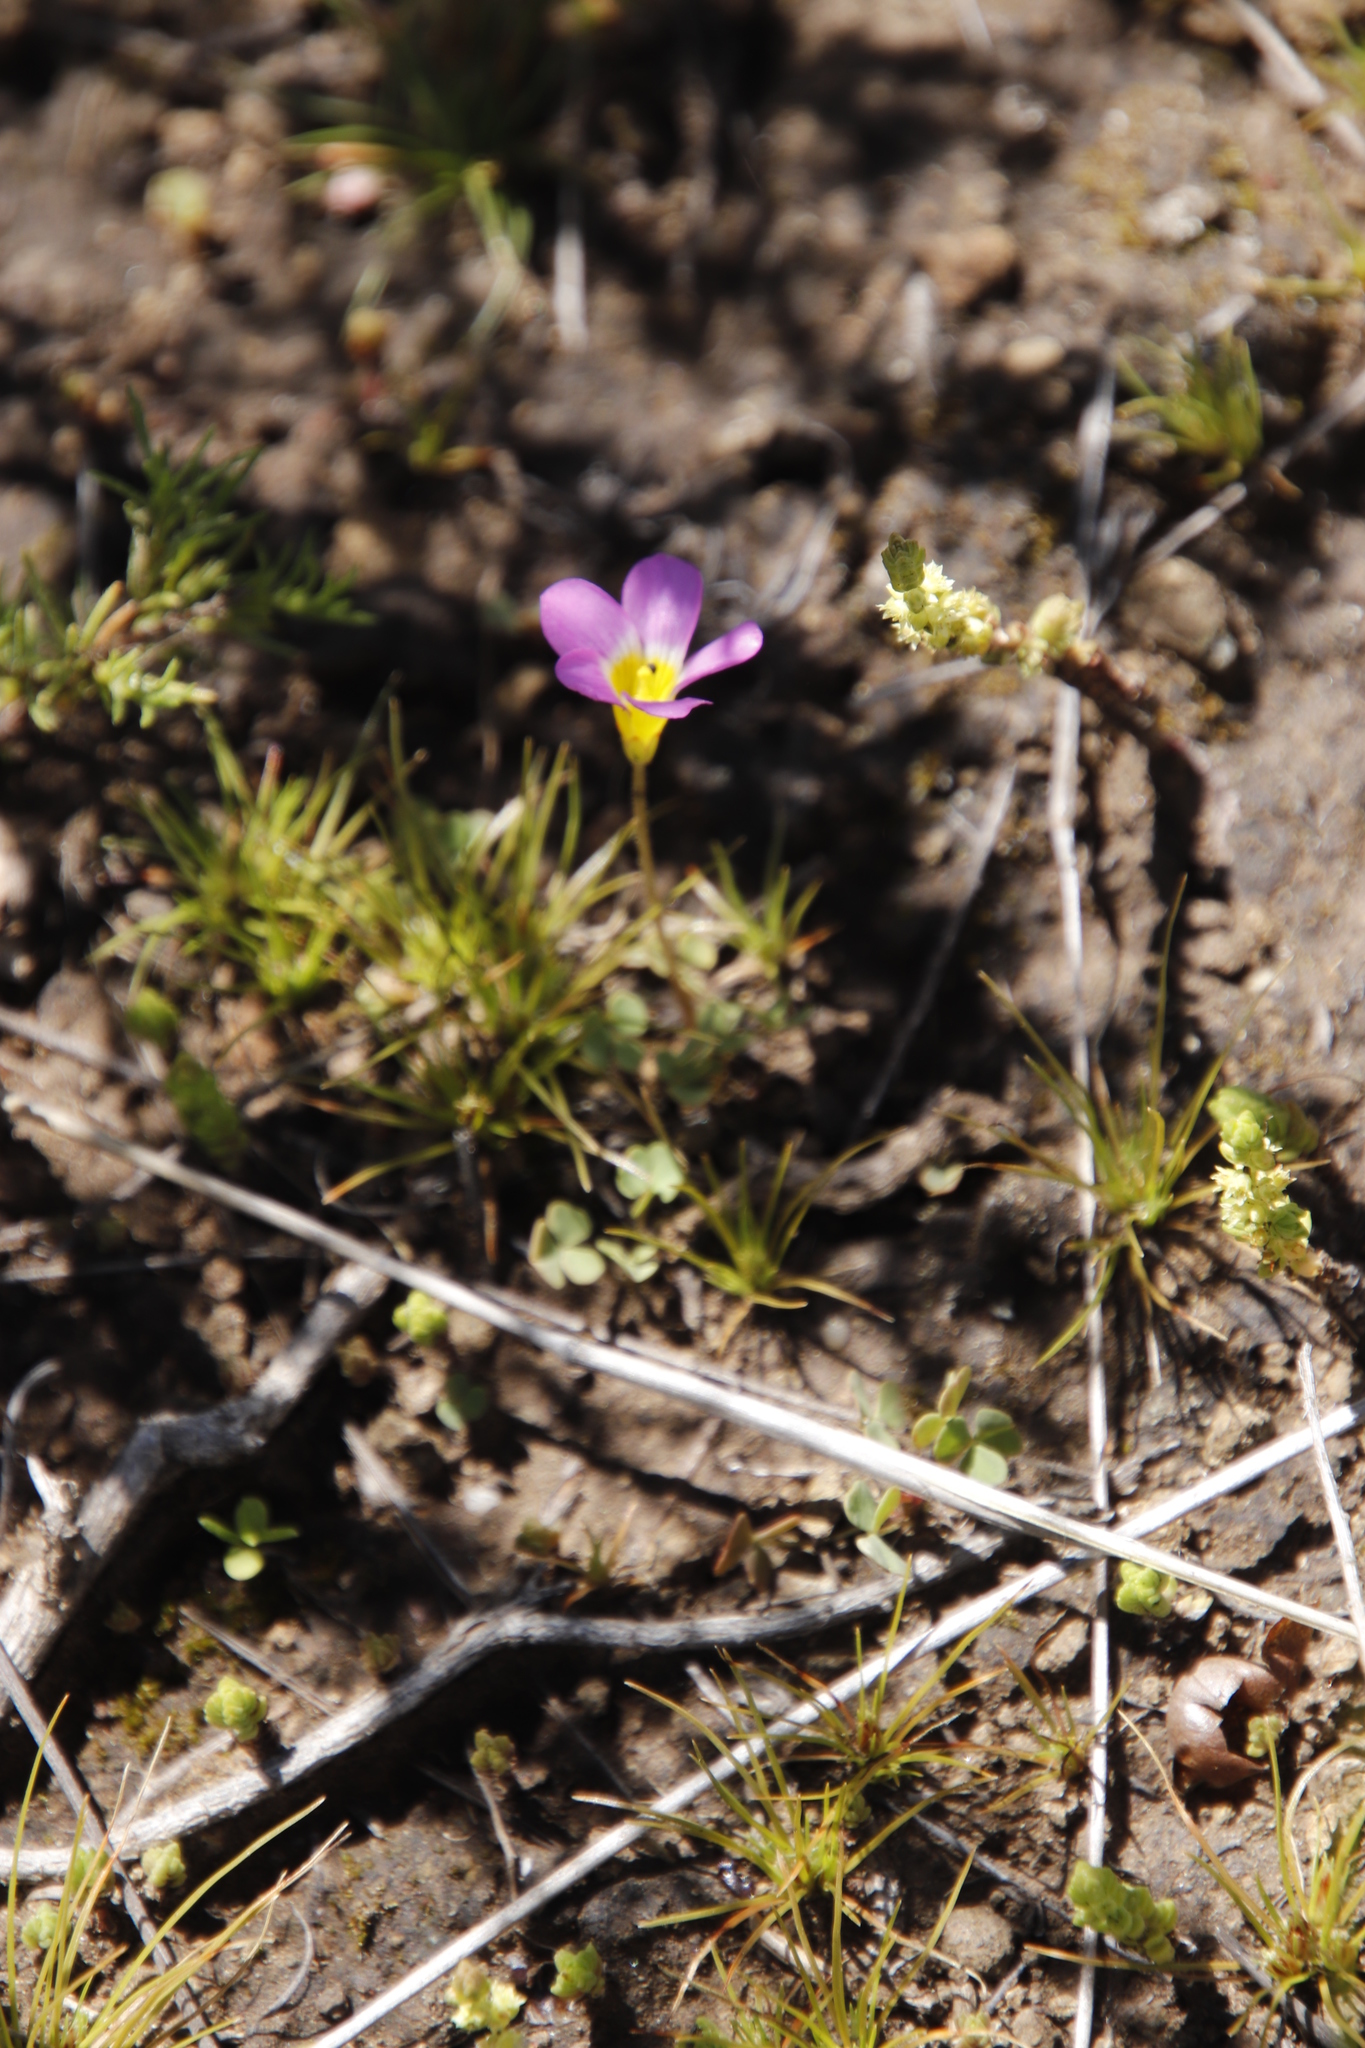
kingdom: Plantae
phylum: Tracheophyta
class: Magnoliopsida
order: Oxalidales
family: Oxalidaceae
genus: Oxalis
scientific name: Oxalis obliquifolia
